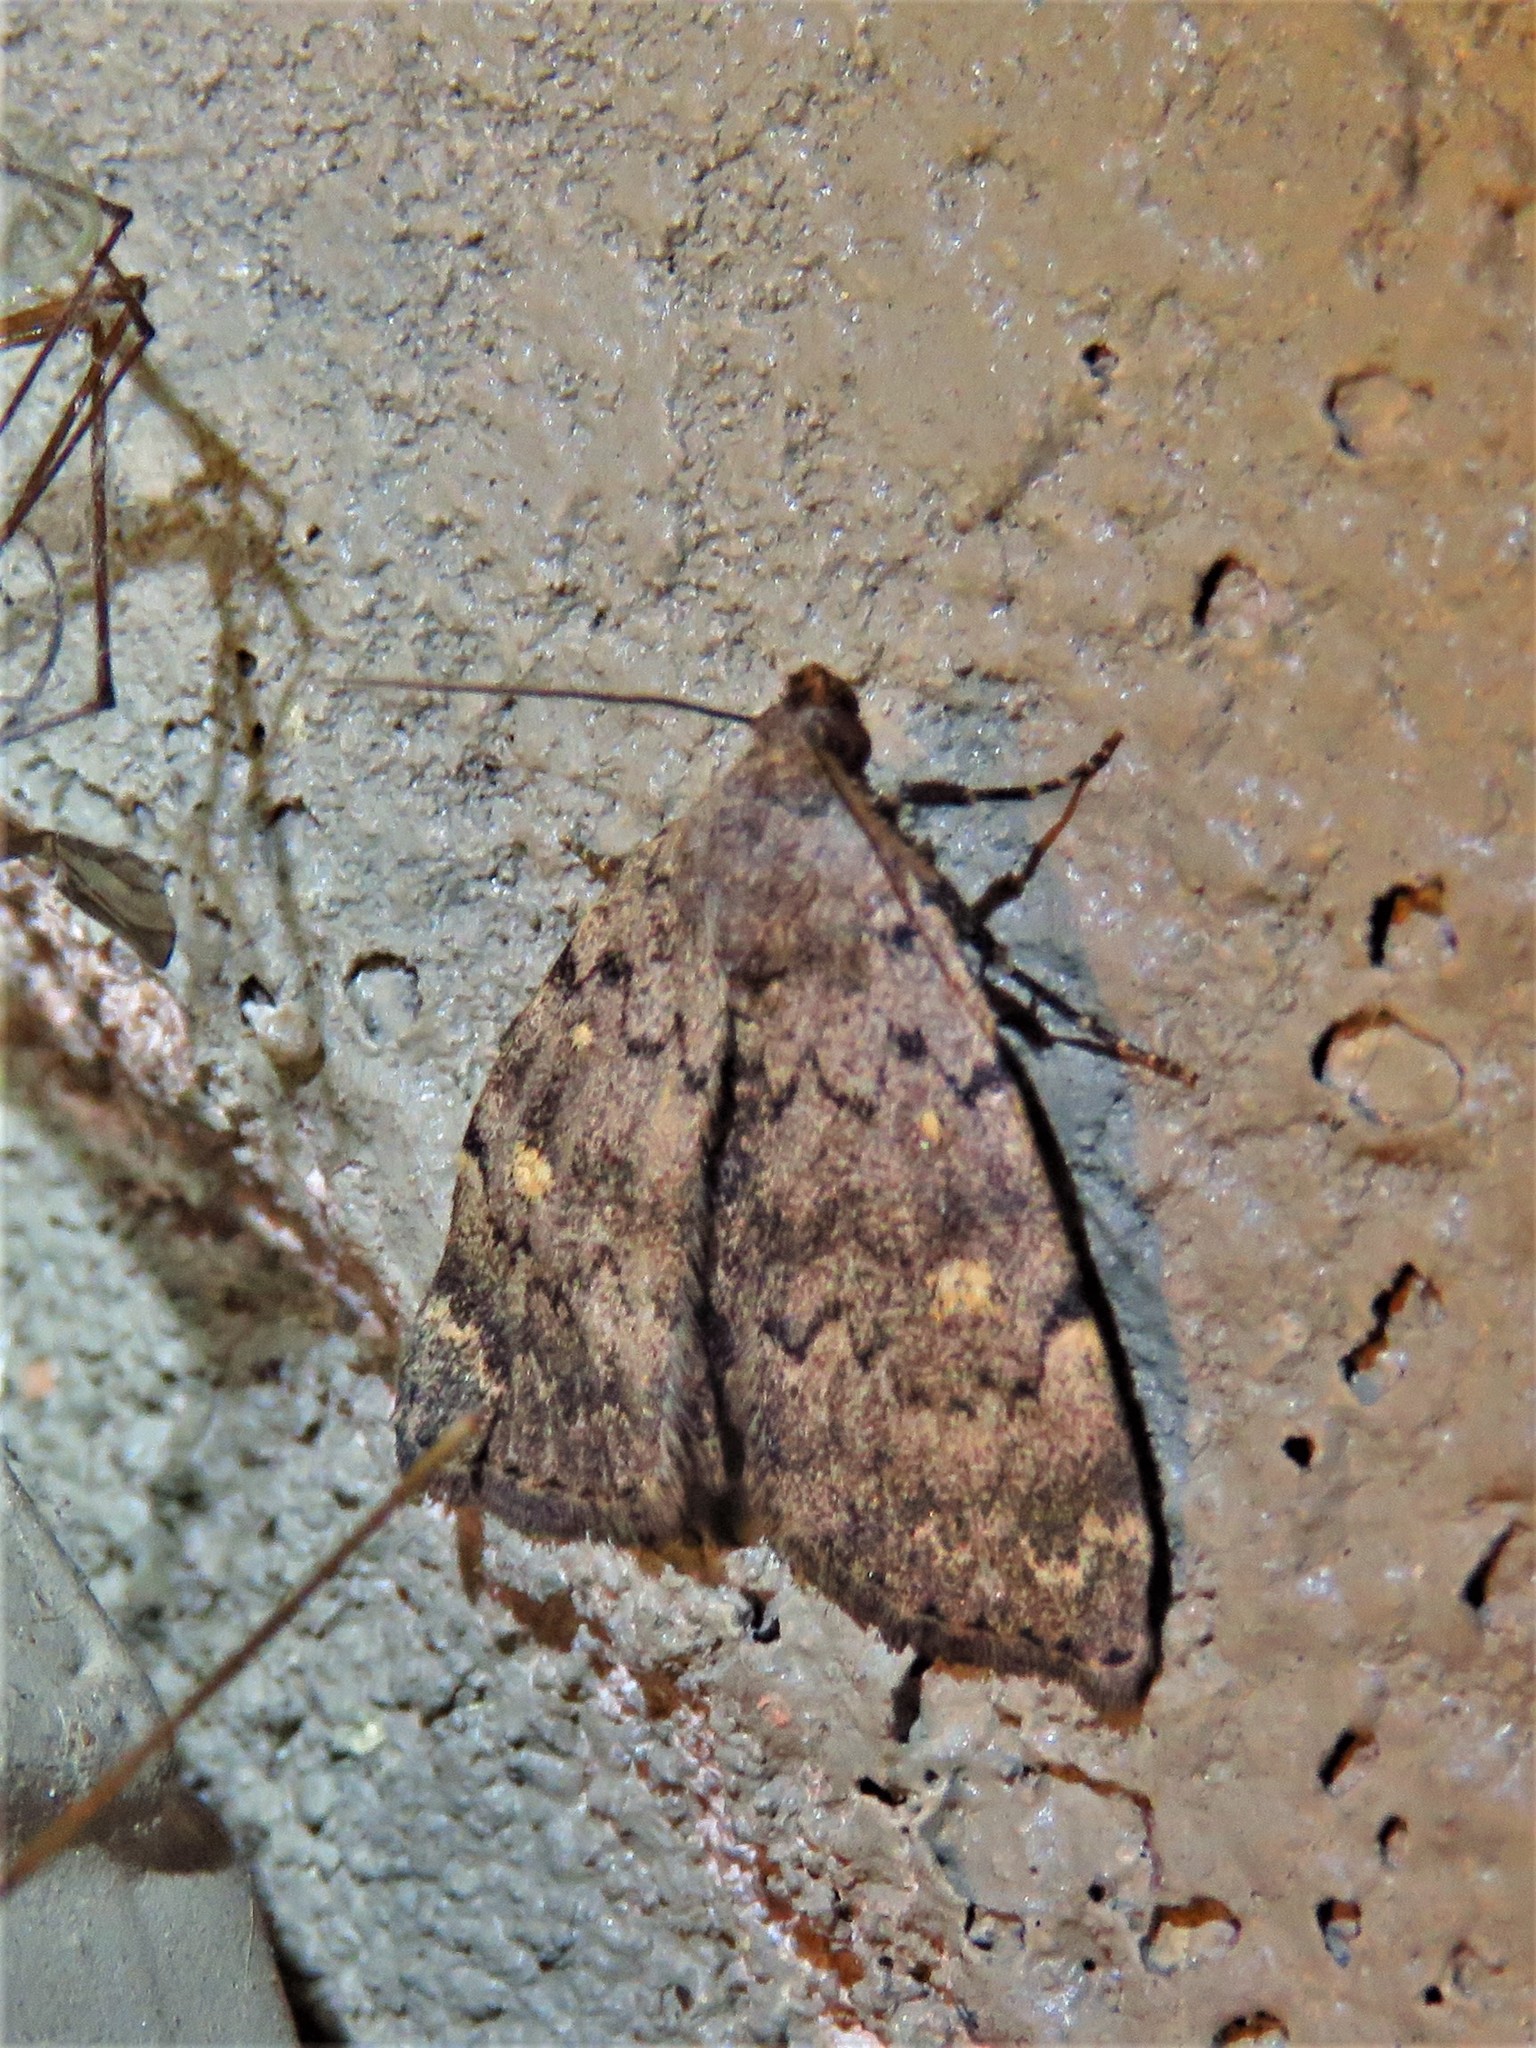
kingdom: Animalia
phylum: Arthropoda
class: Insecta
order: Lepidoptera
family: Erebidae
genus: Idia
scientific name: Idia aemula
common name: Common idia moth
